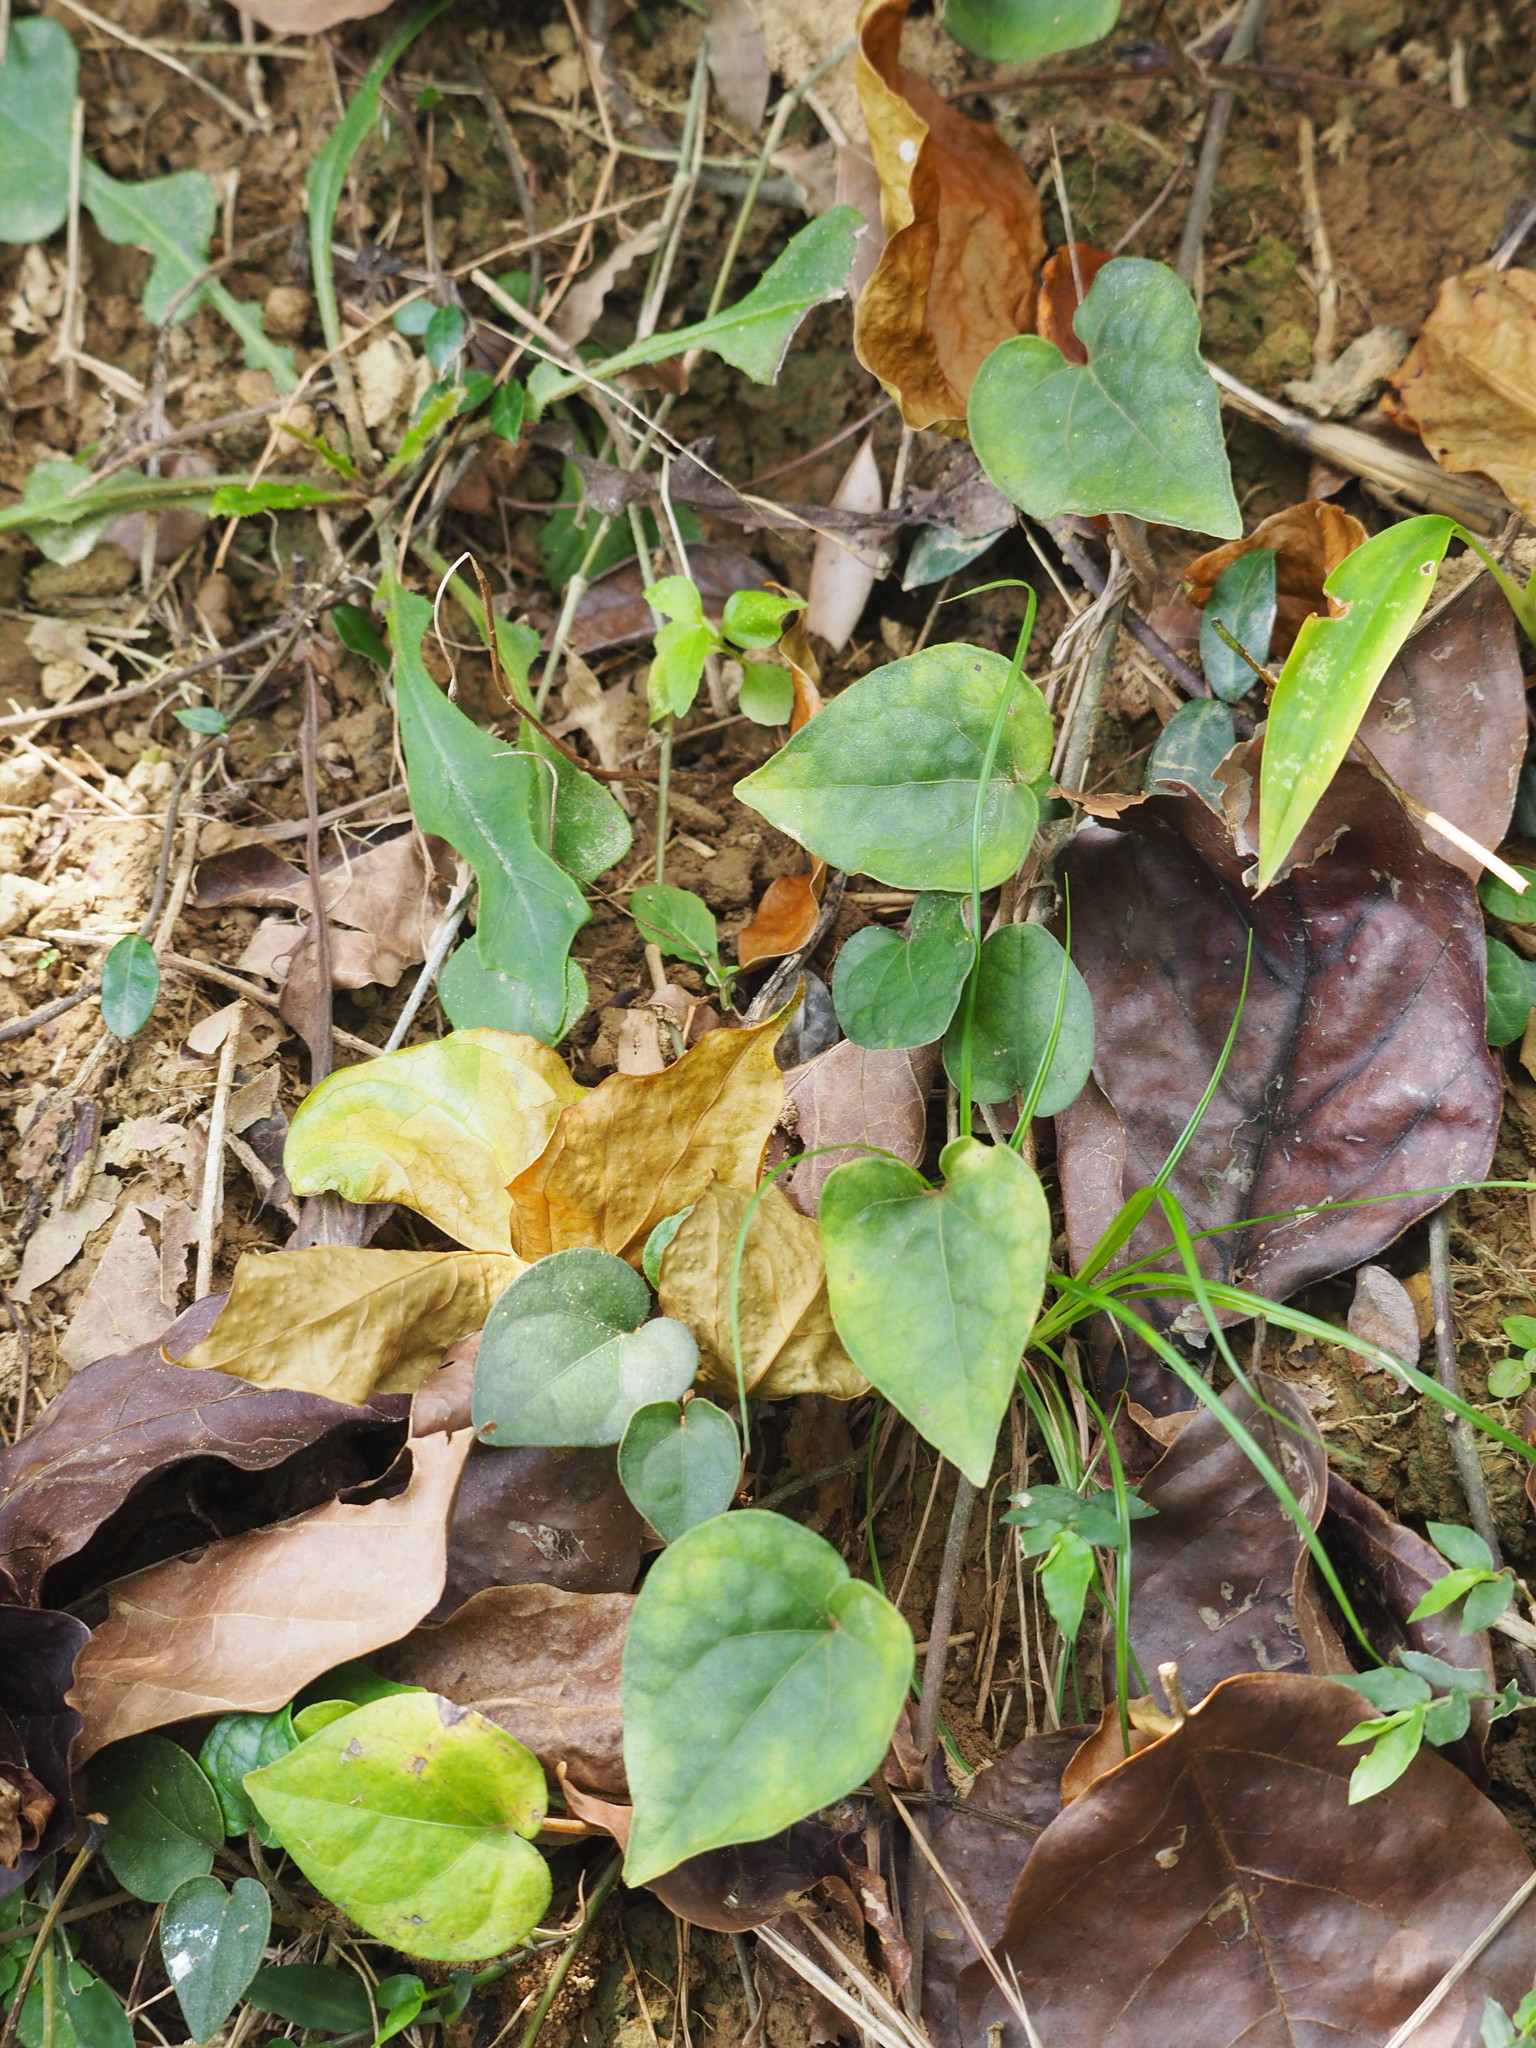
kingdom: Plantae
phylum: Tracheophyta
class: Magnoliopsida
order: Piperales
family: Piperaceae
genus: Piper
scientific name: Piper kadsura
